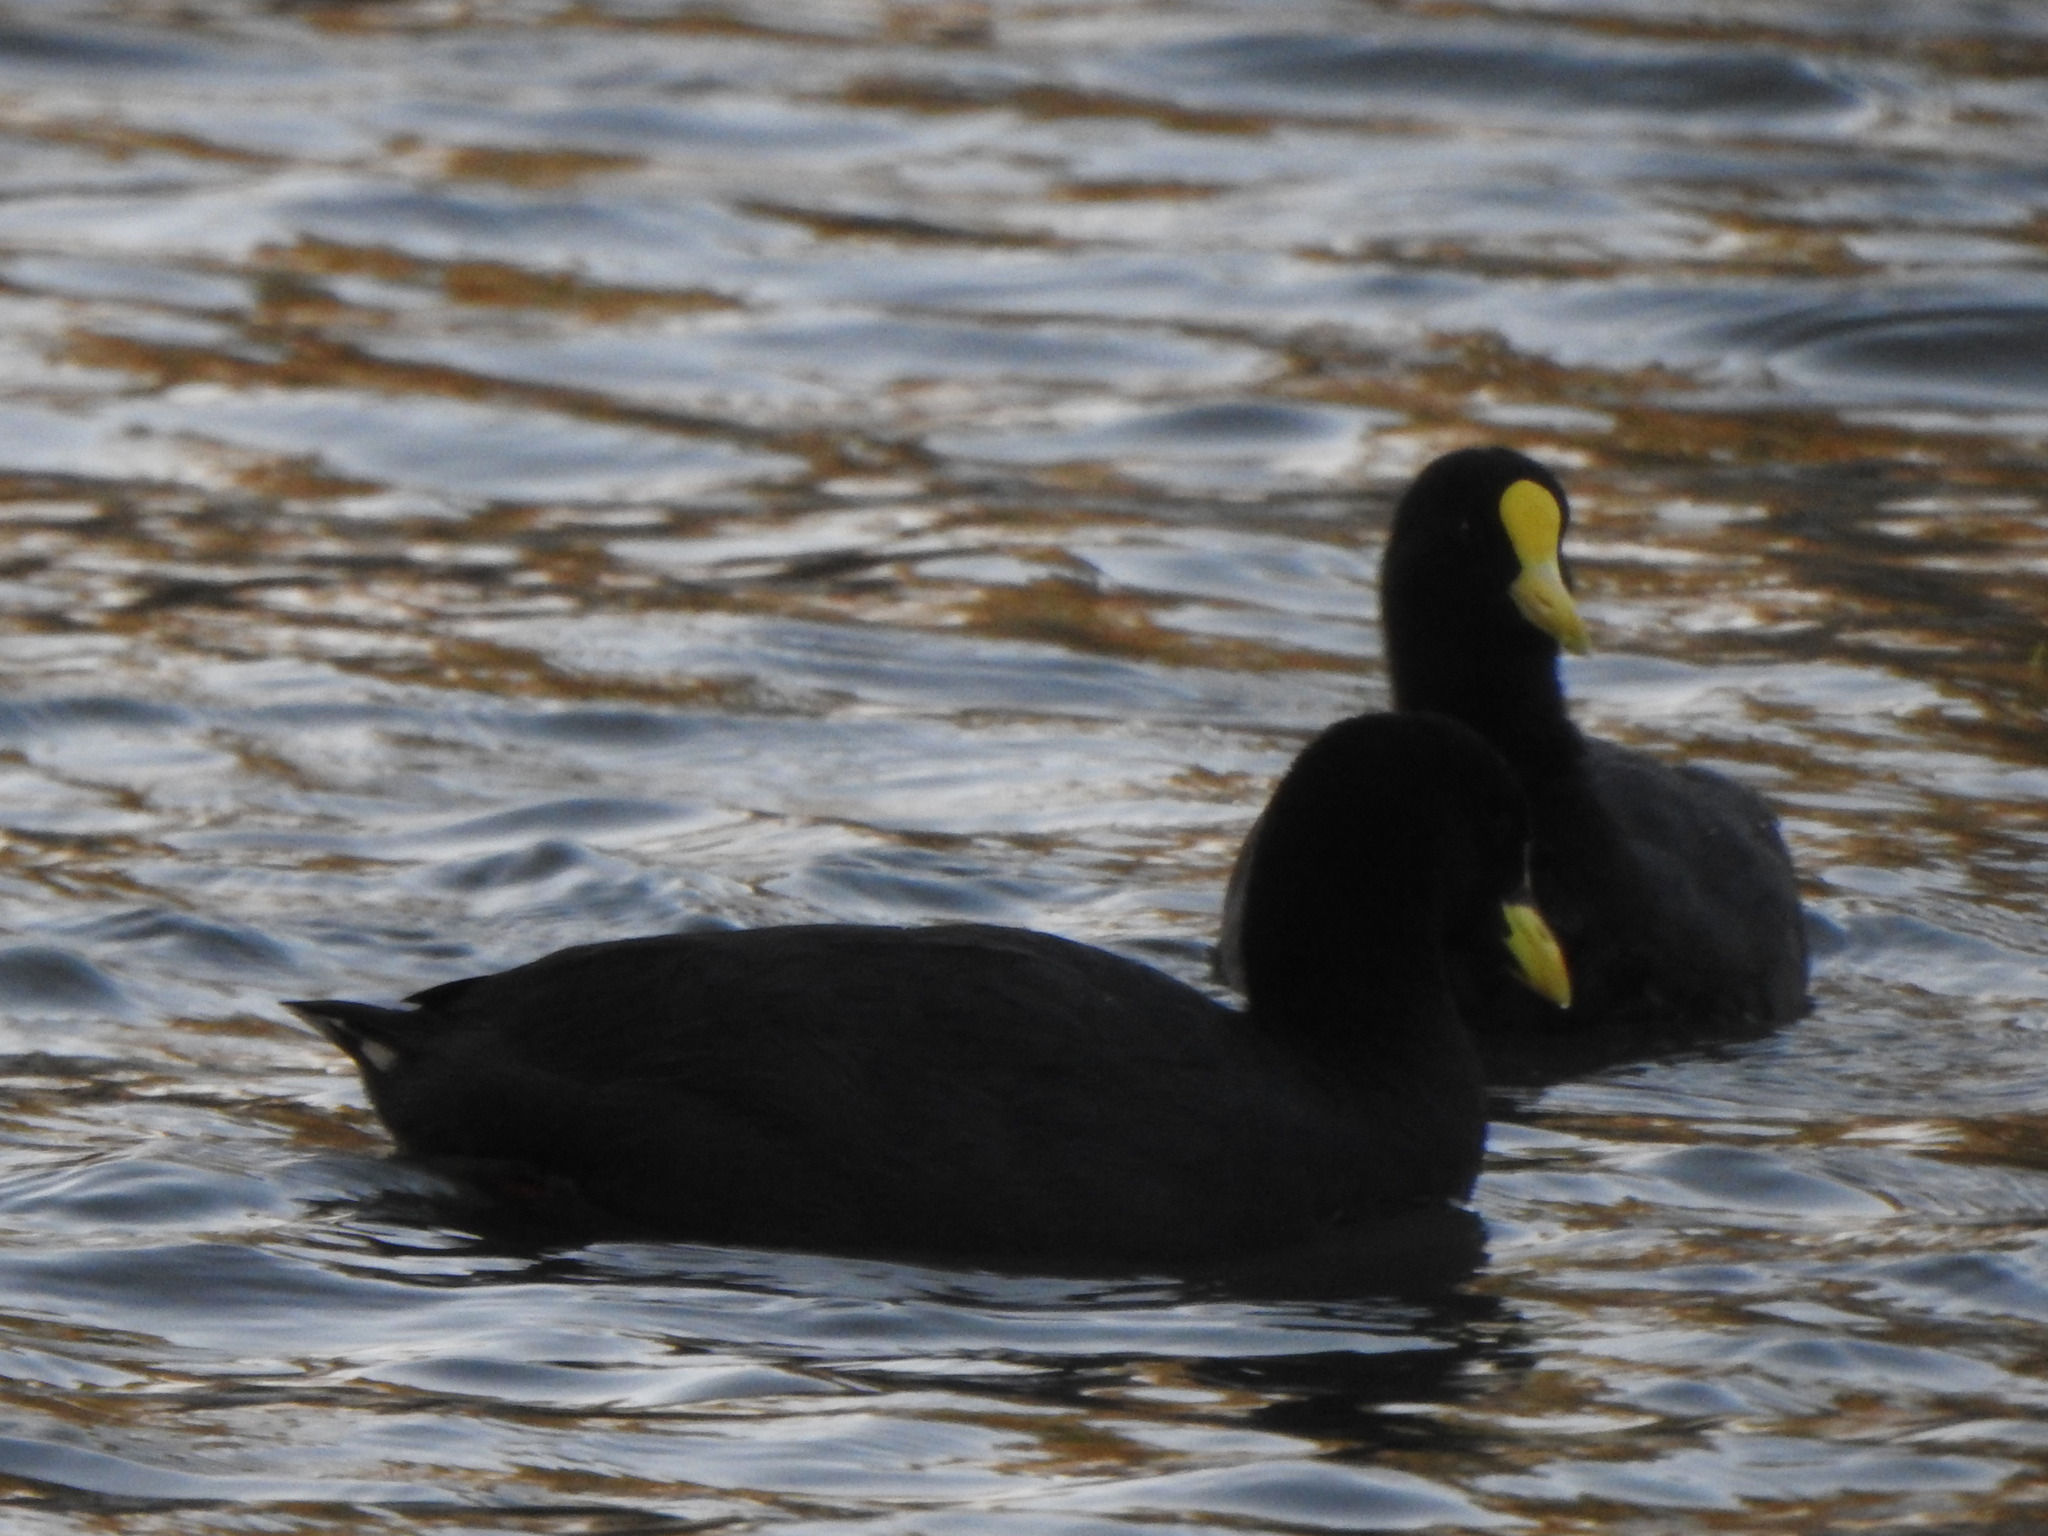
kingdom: Animalia
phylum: Chordata
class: Aves
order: Gruiformes
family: Rallidae
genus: Fulica
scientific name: Fulica leucoptera
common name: White-winged coot
